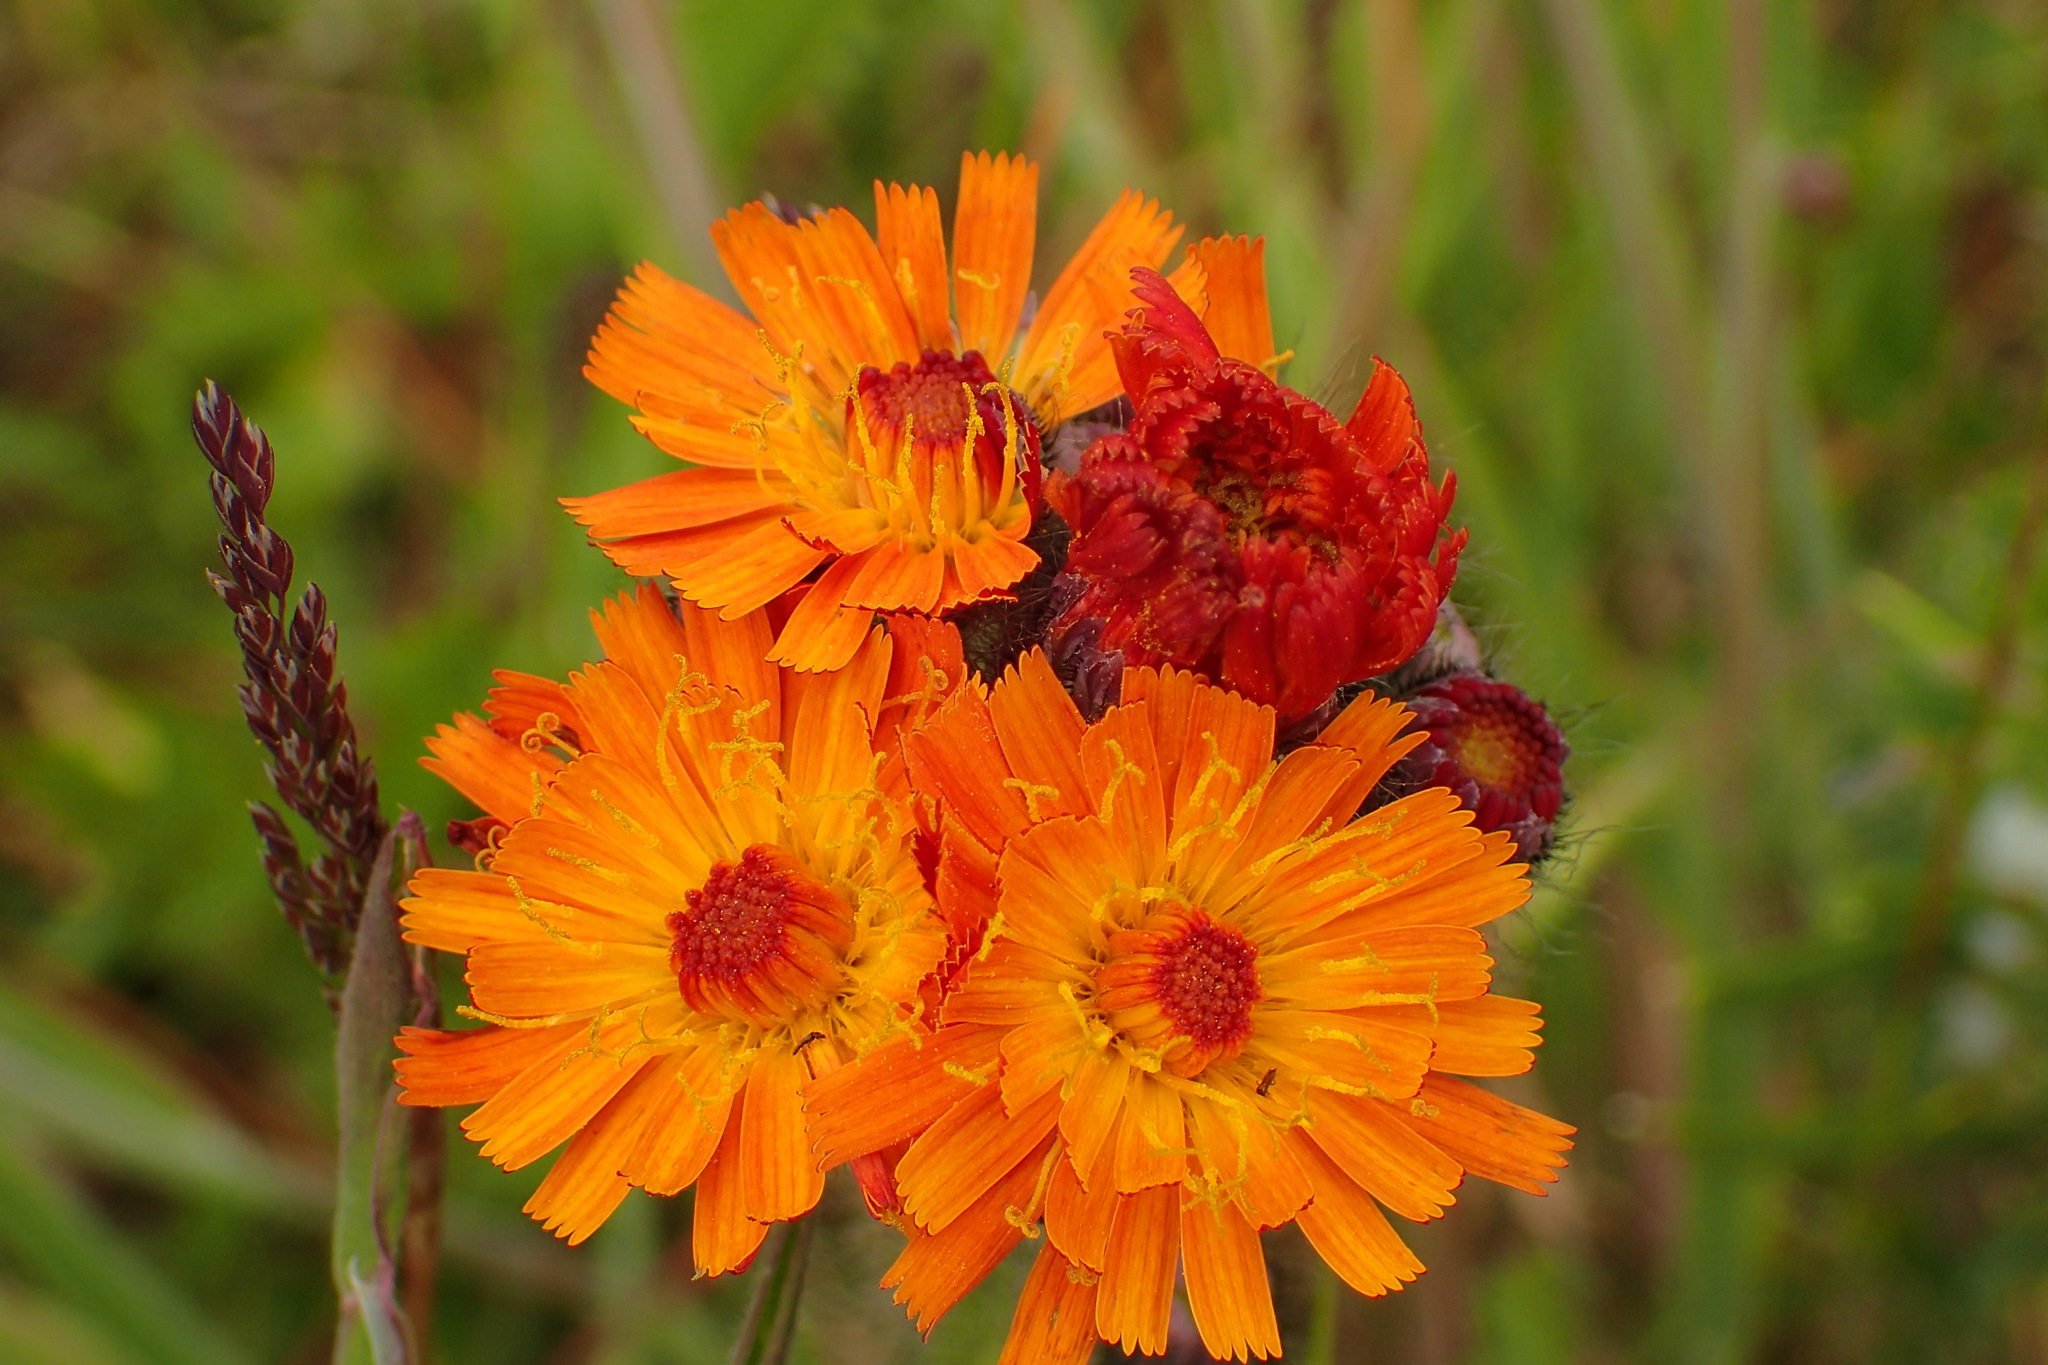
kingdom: Plantae
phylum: Tracheophyta
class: Magnoliopsida
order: Asterales
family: Asteraceae
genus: Pilosella
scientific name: Pilosella aurantiaca
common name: Fox-and-cubs
